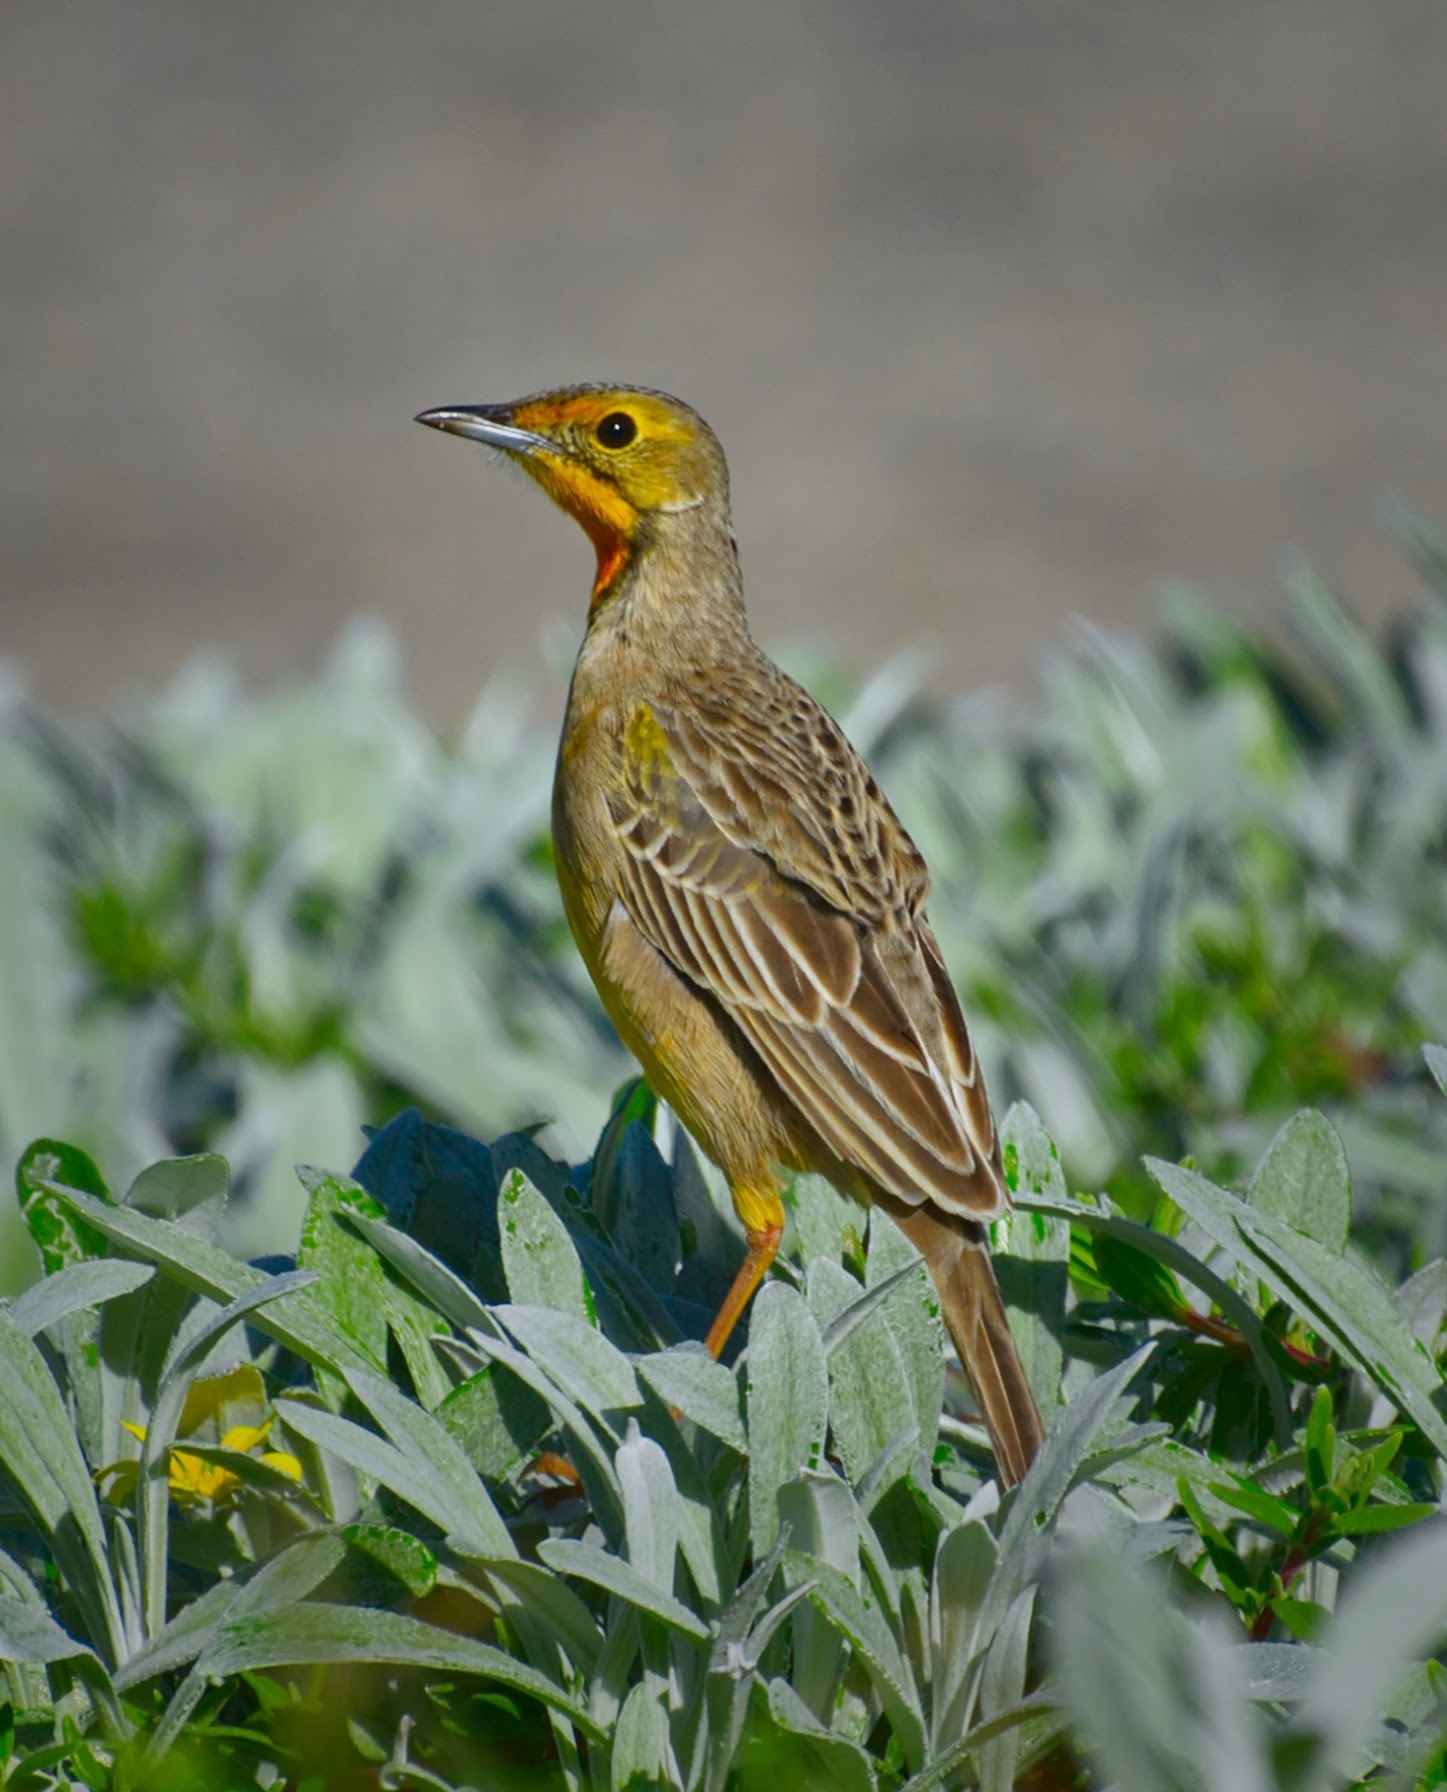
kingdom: Animalia
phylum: Chordata
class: Aves
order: Passeriformes
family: Motacillidae
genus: Macronyx
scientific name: Macronyx capensis
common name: Cape longclaw
